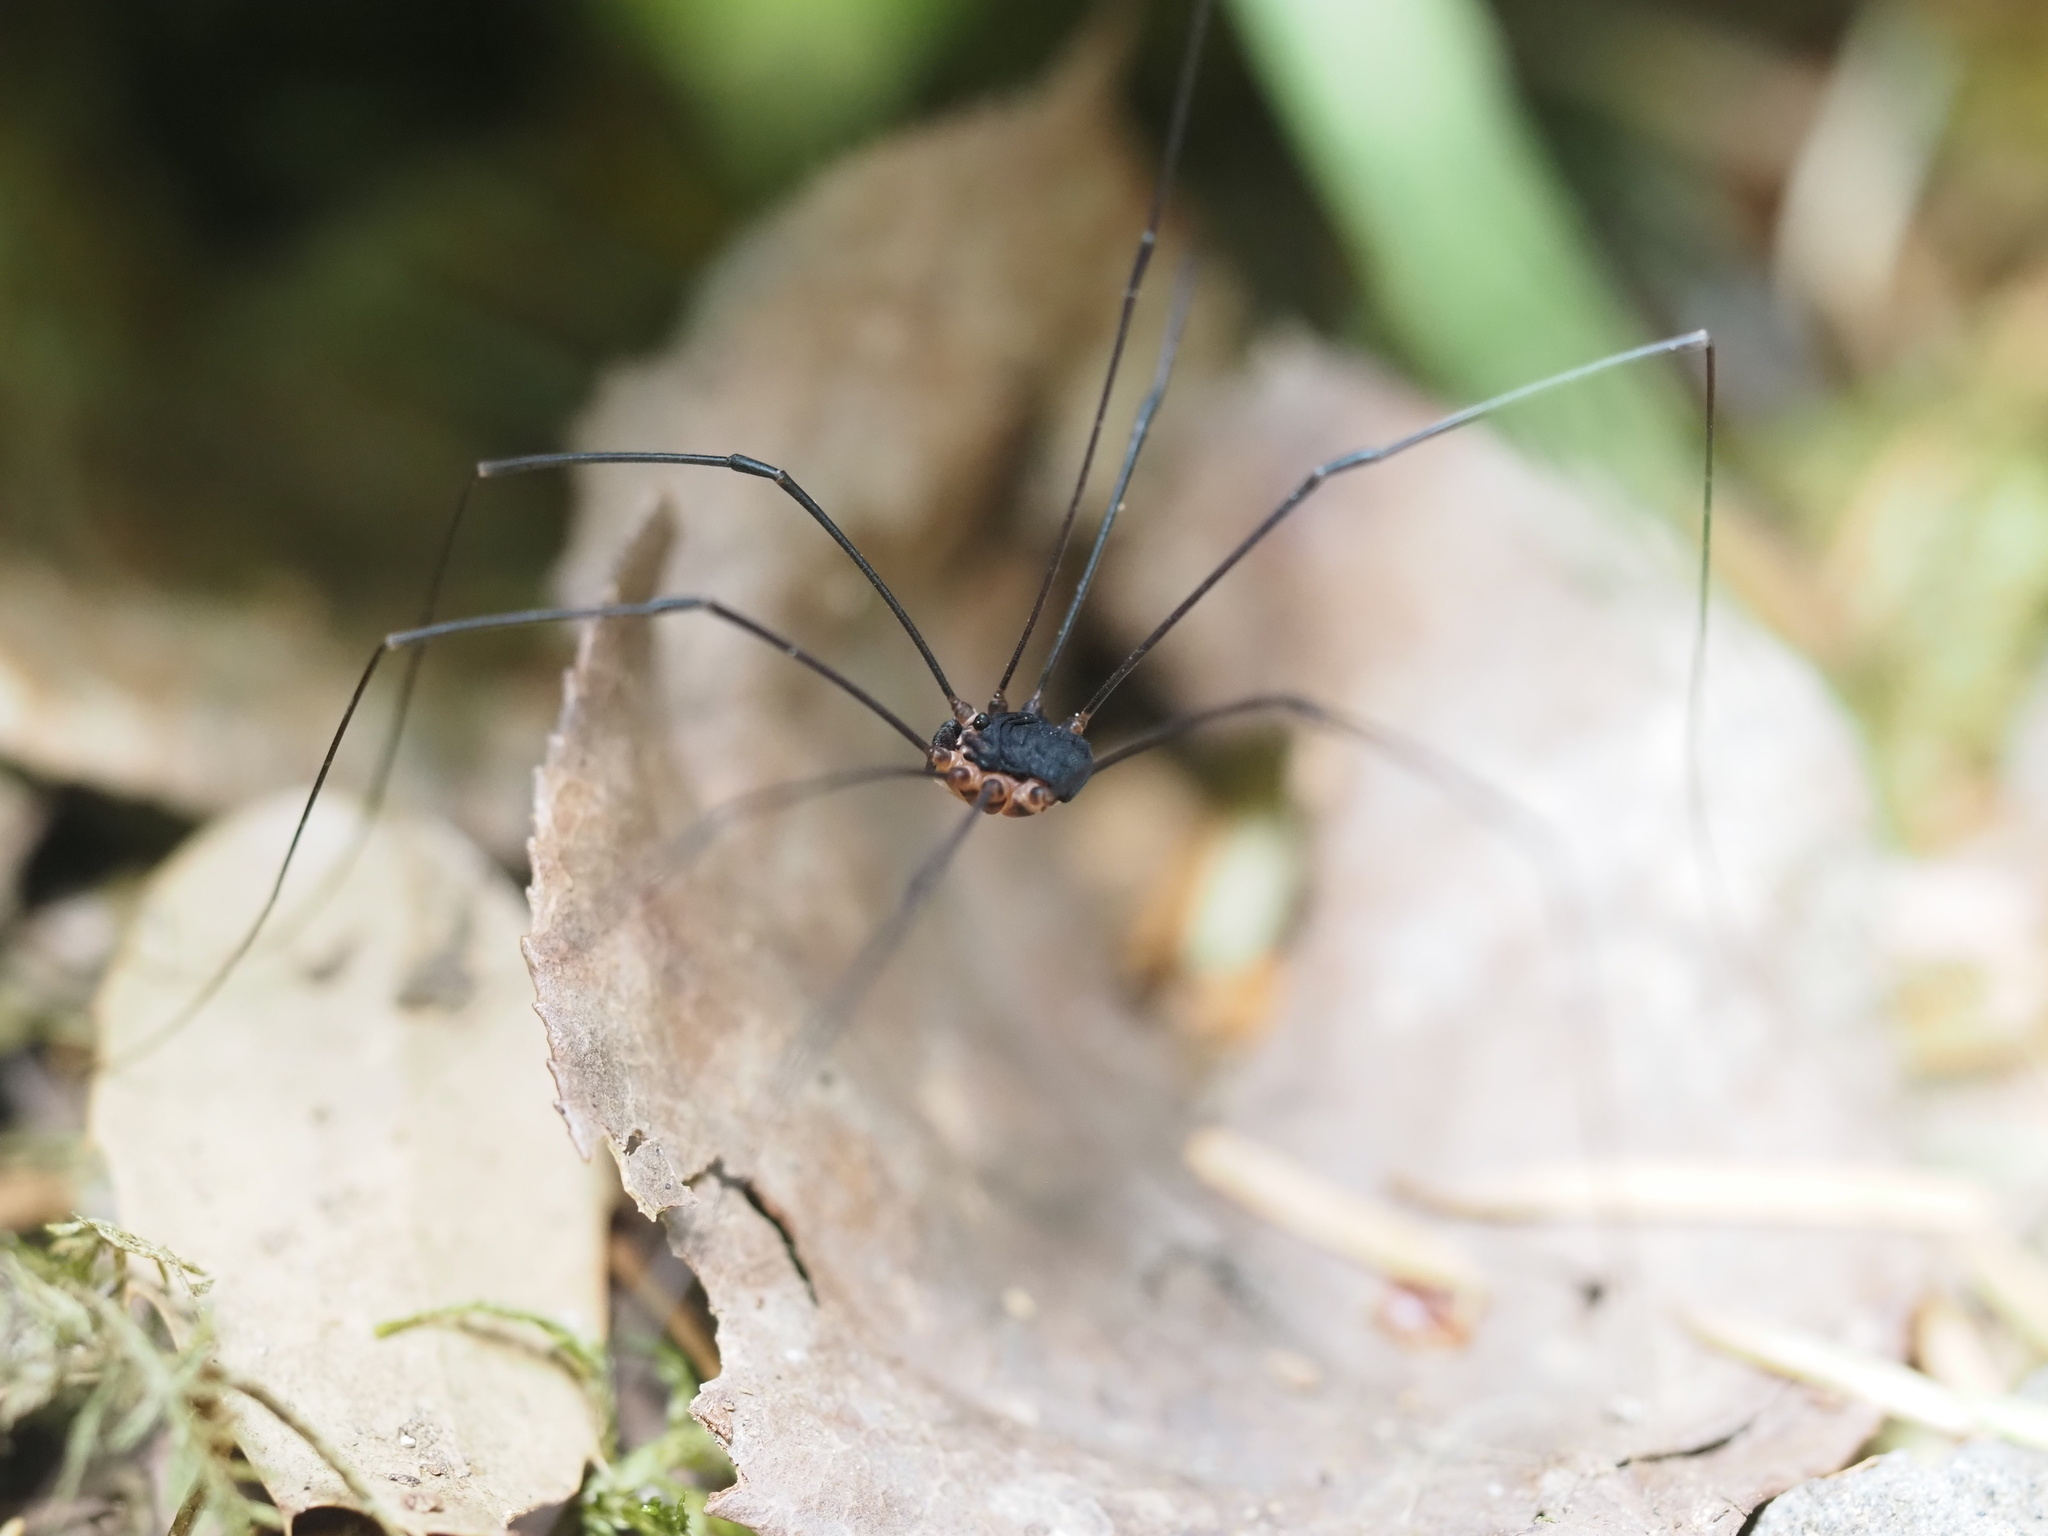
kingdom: Animalia
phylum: Arthropoda
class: Arachnida
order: Opiliones
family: Sclerosomatidae
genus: Nelima
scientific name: Nelima paessleri
